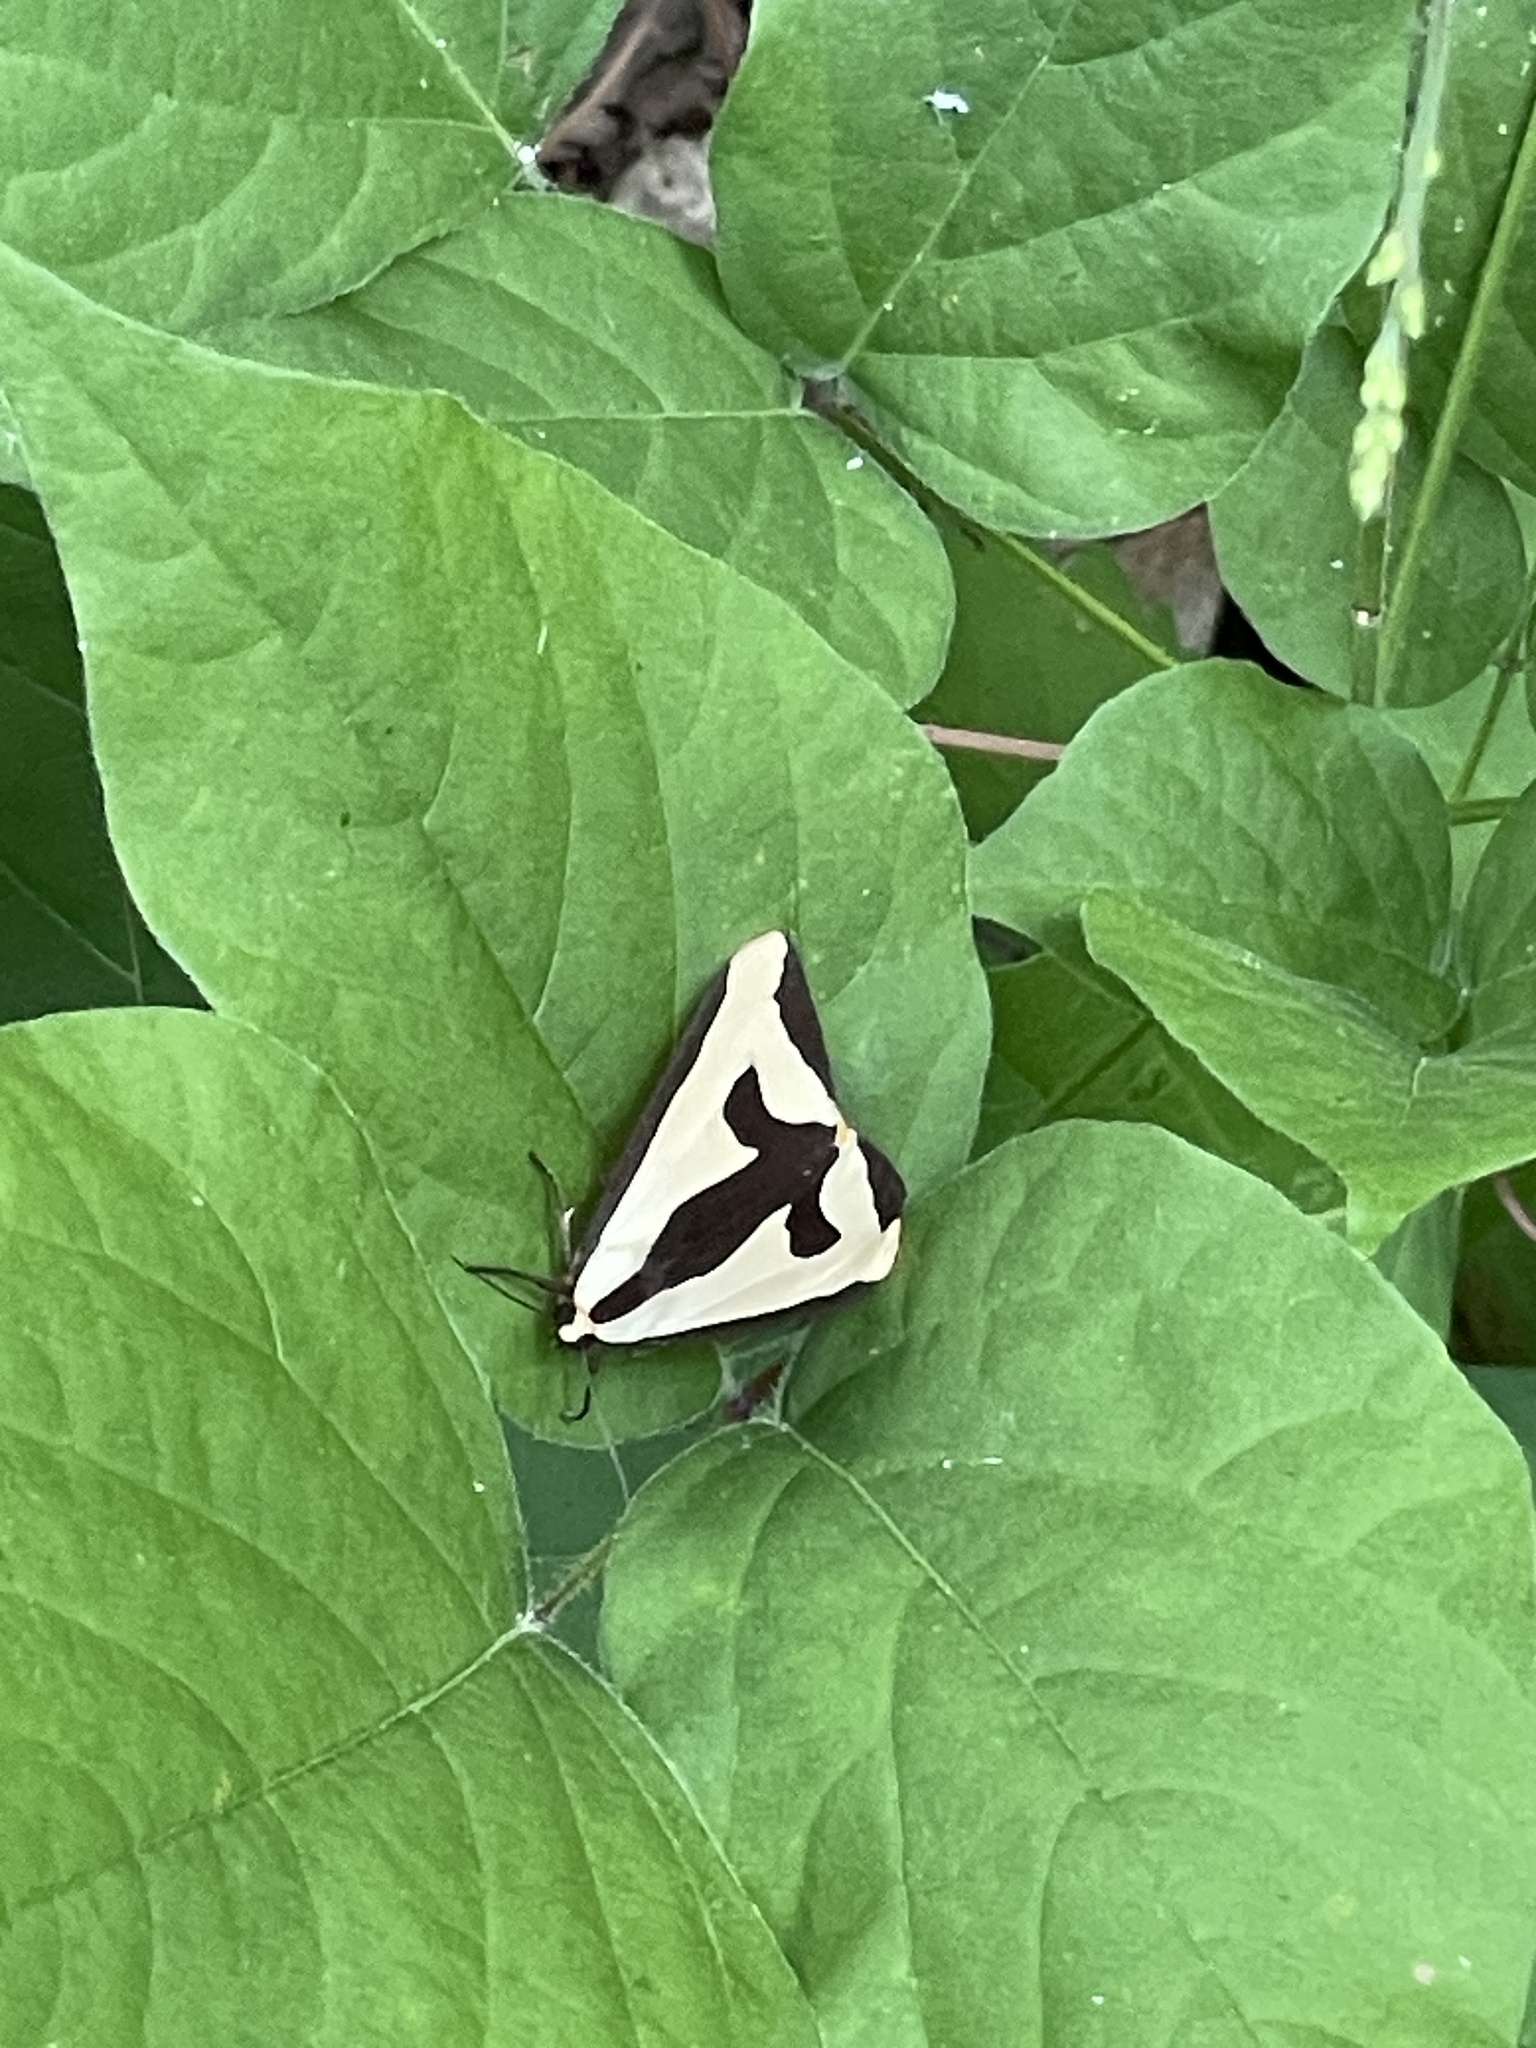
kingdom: Animalia
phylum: Arthropoda
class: Insecta
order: Lepidoptera
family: Erebidae
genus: Haploa
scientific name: Haploa clymene
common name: Clymene moth
